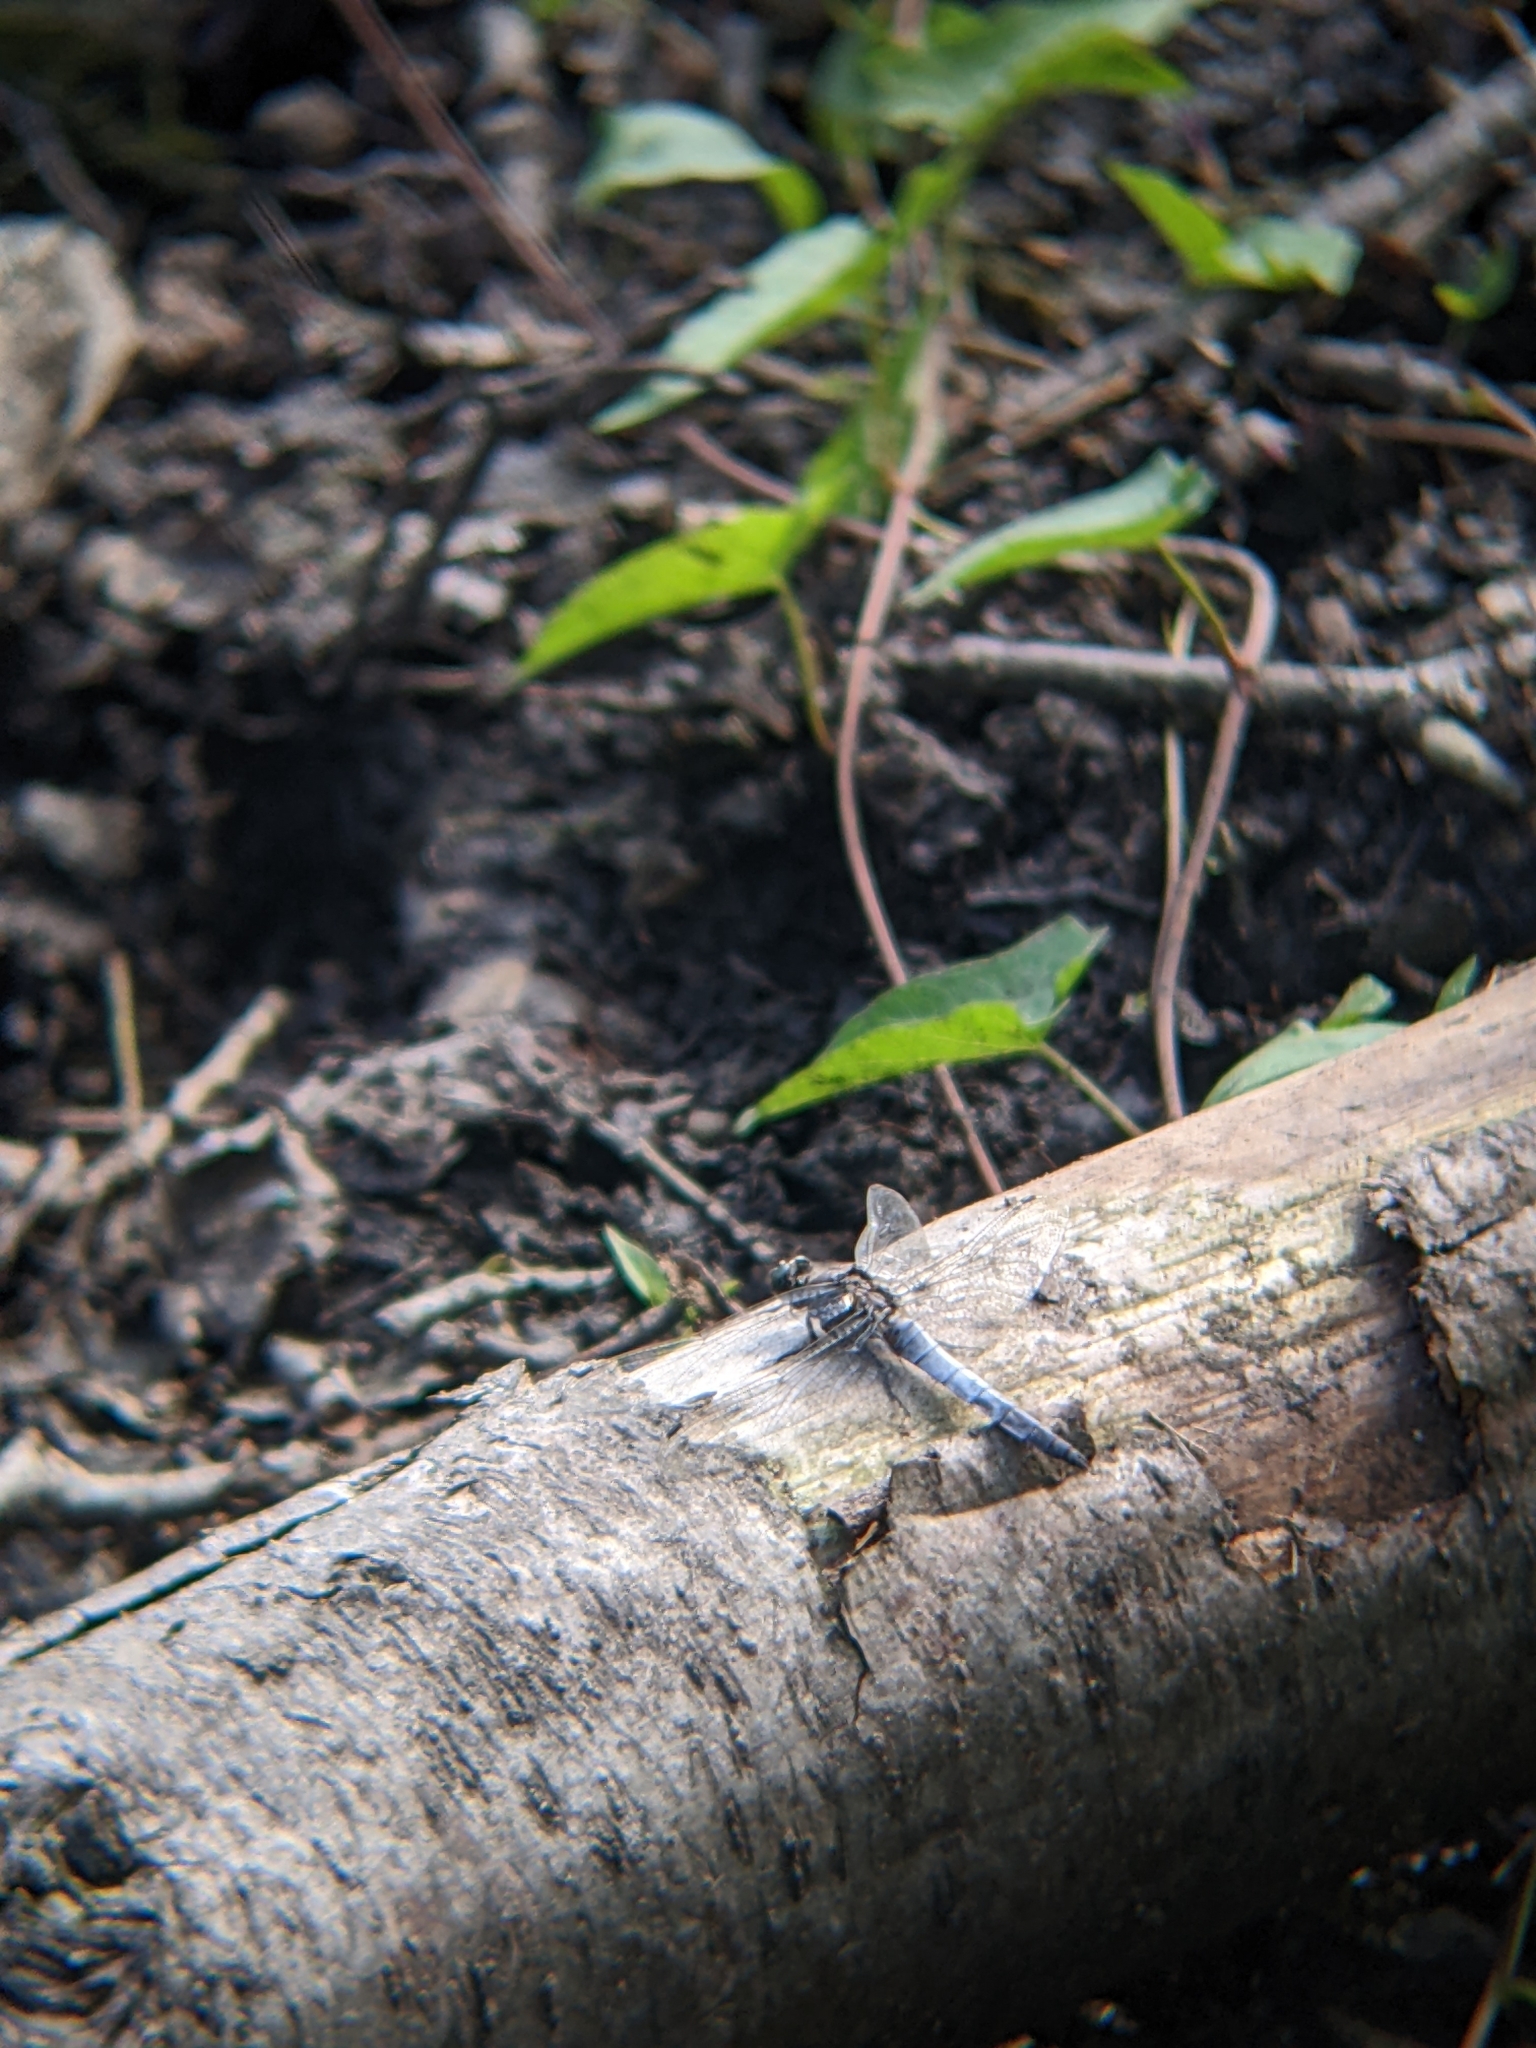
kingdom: Animalia
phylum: Arthropoda
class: Insecta
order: Odonata
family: Libellulidae
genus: Orthetrum
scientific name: Orthetrum cancellatum
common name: Black-tailed skimmer
